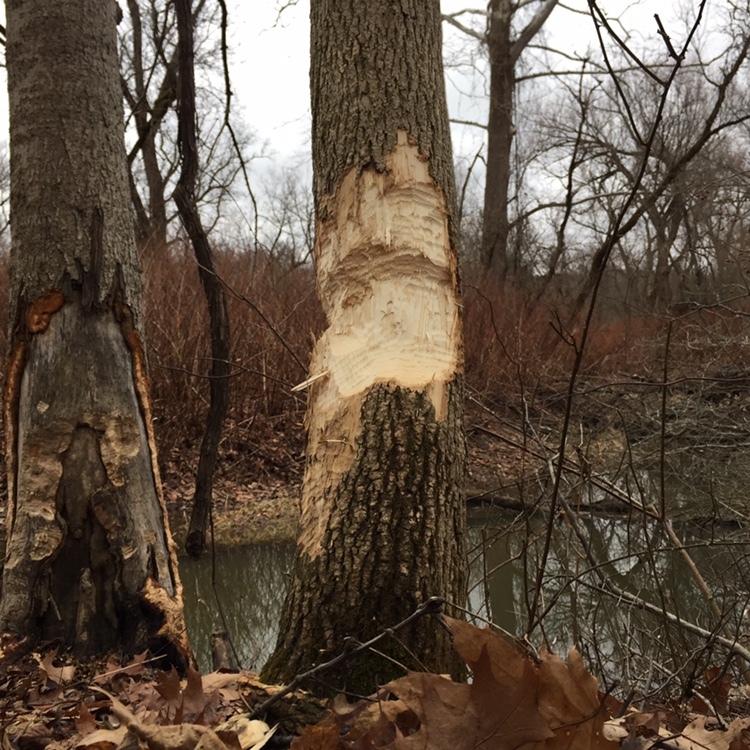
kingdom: Animalia
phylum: Chordata
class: Mammalia
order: Rodentia
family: Castoridae
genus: Castor
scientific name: Castor canadensis
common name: American beaver
